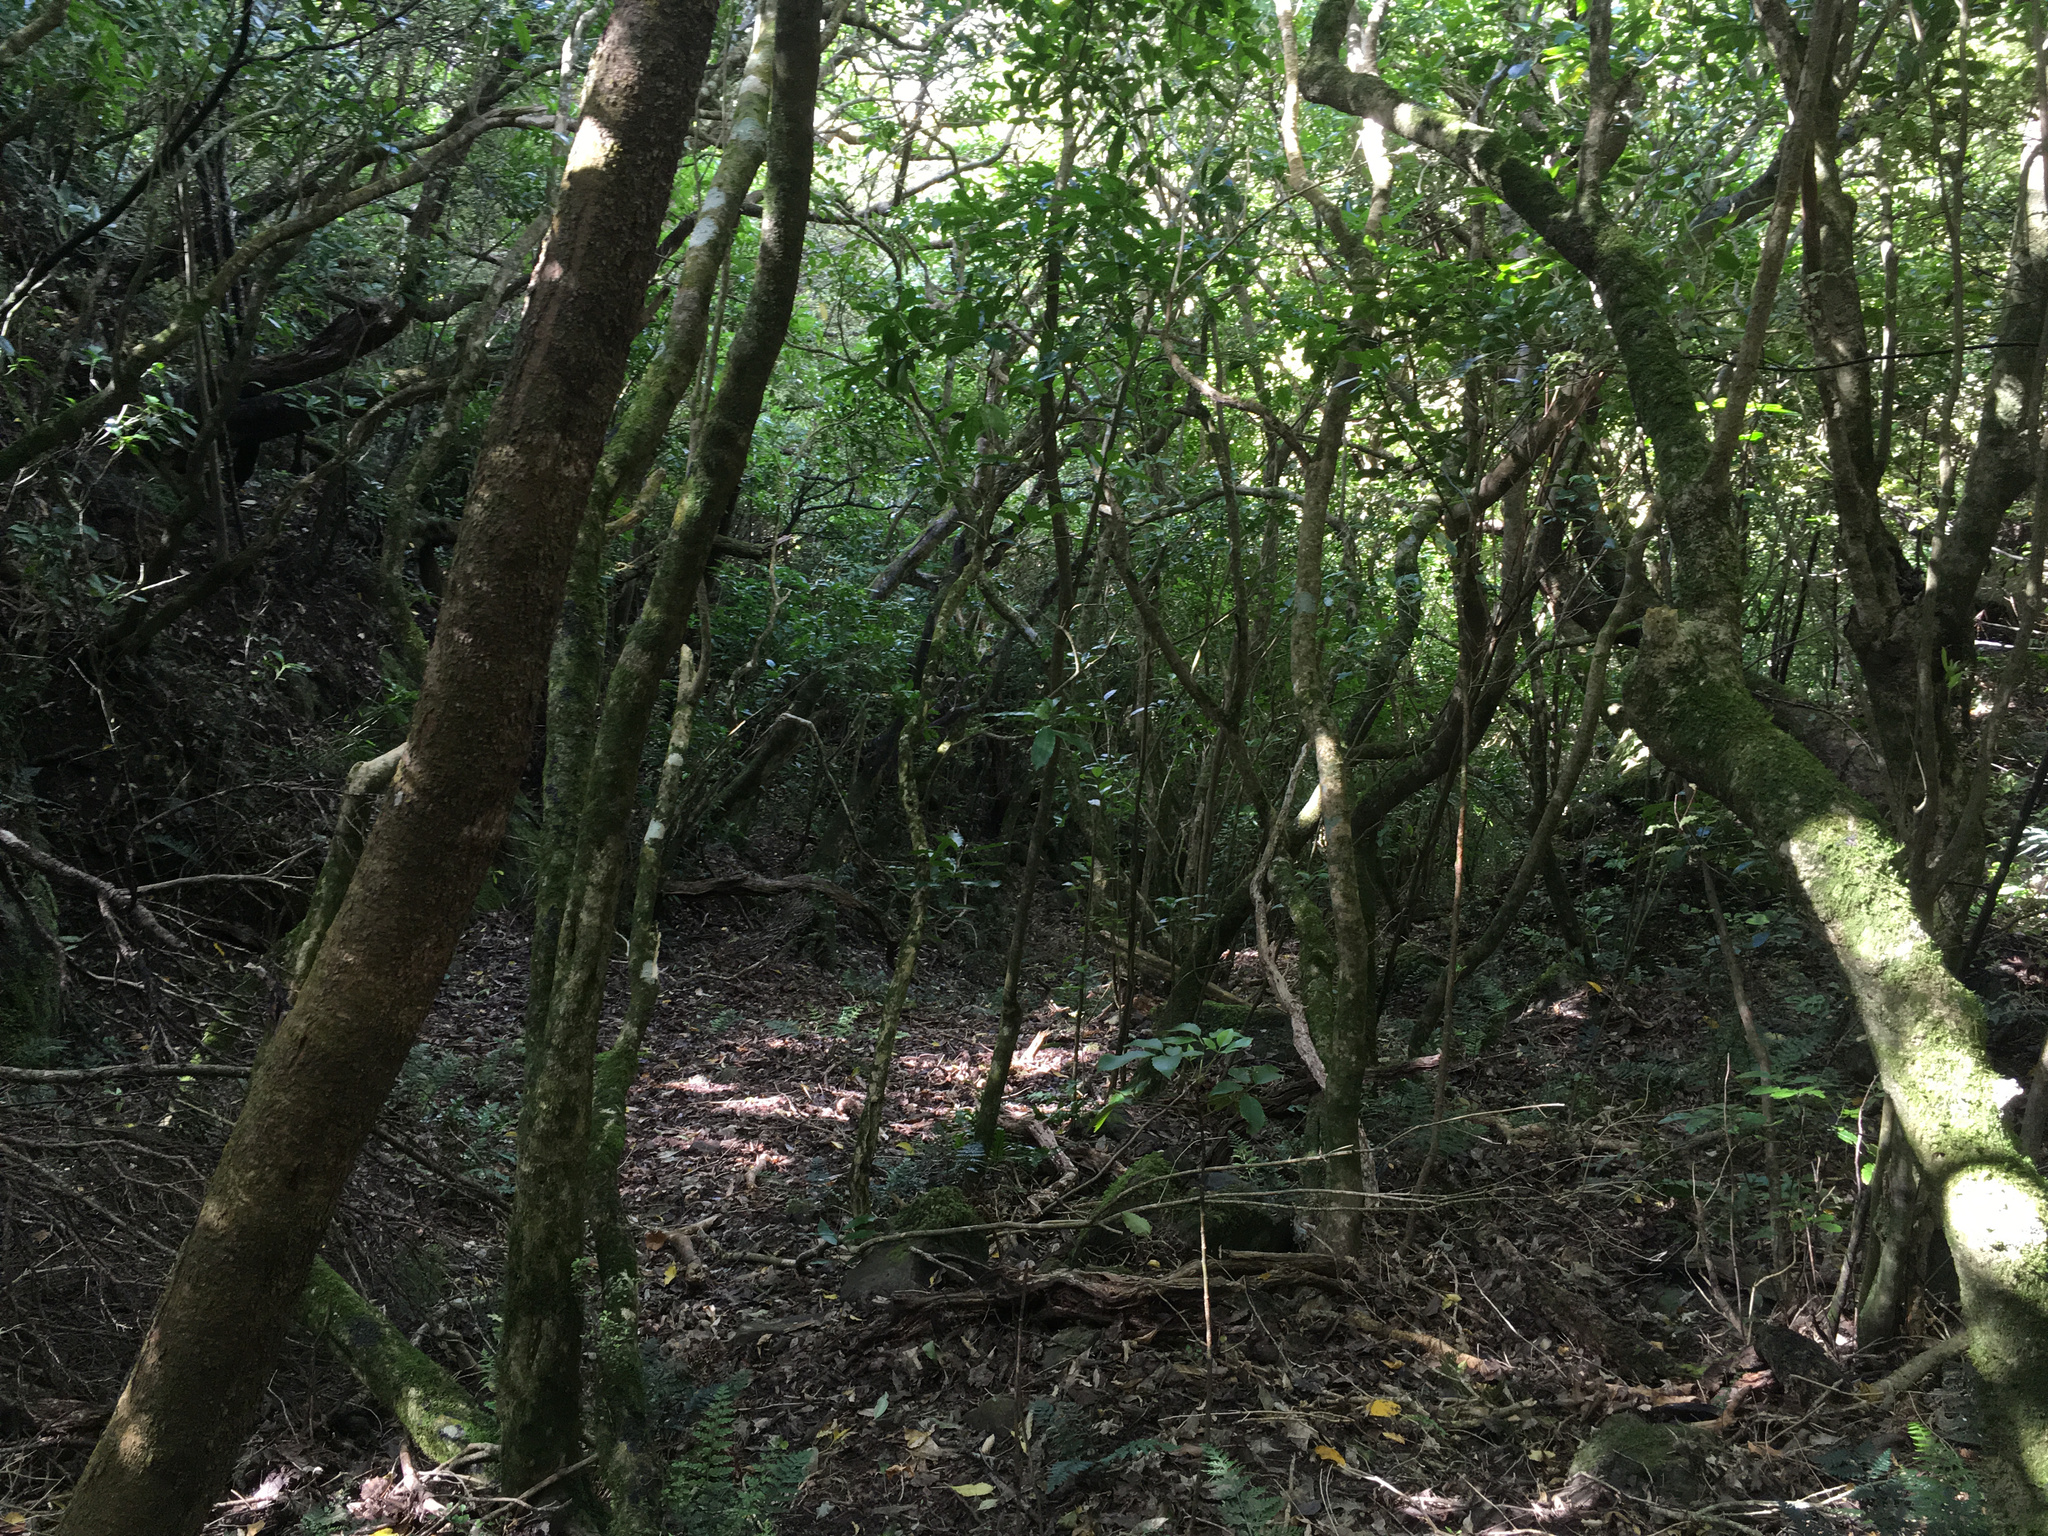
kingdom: Plantae
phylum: Tracheophyta
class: Magnoliopsida
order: Malpighiales
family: Violaceae
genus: Melicytus
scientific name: Melicytus ramiflorus
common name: Mahoe
